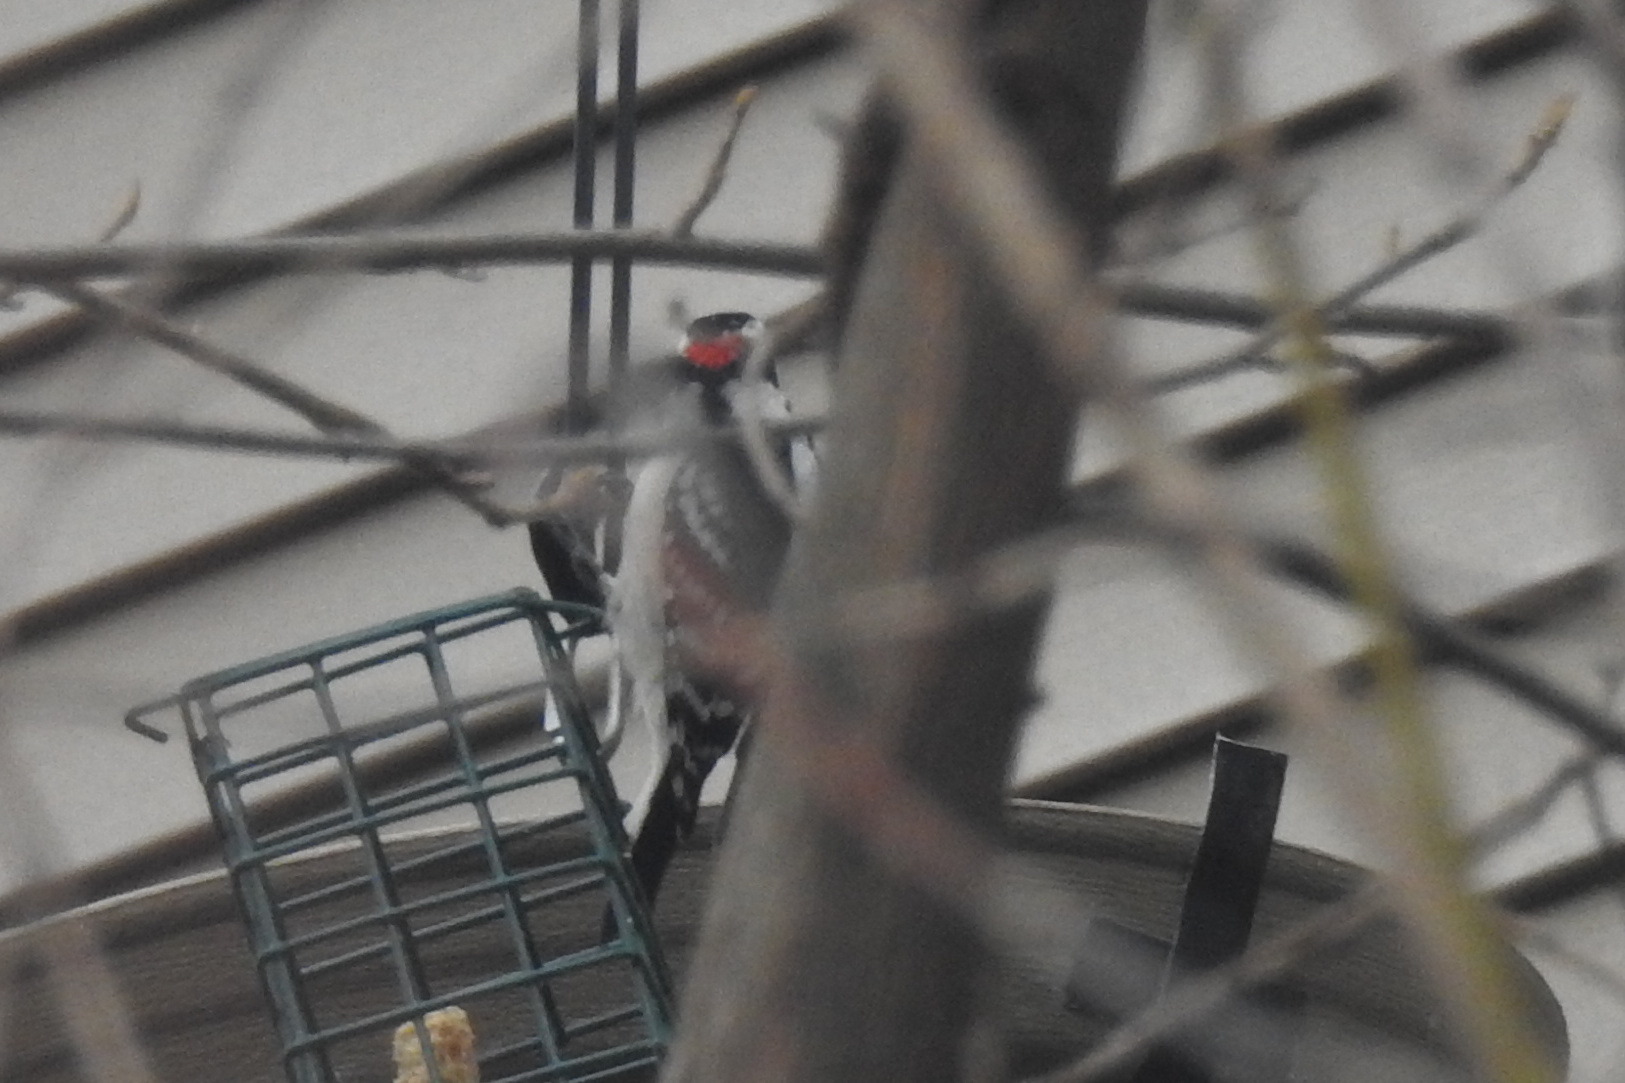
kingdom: Animalia
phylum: Chordata
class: Aves
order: Piciformes
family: Picidae
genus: Dryobates
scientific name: Dryobates pubescens
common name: Downy woodpecker
